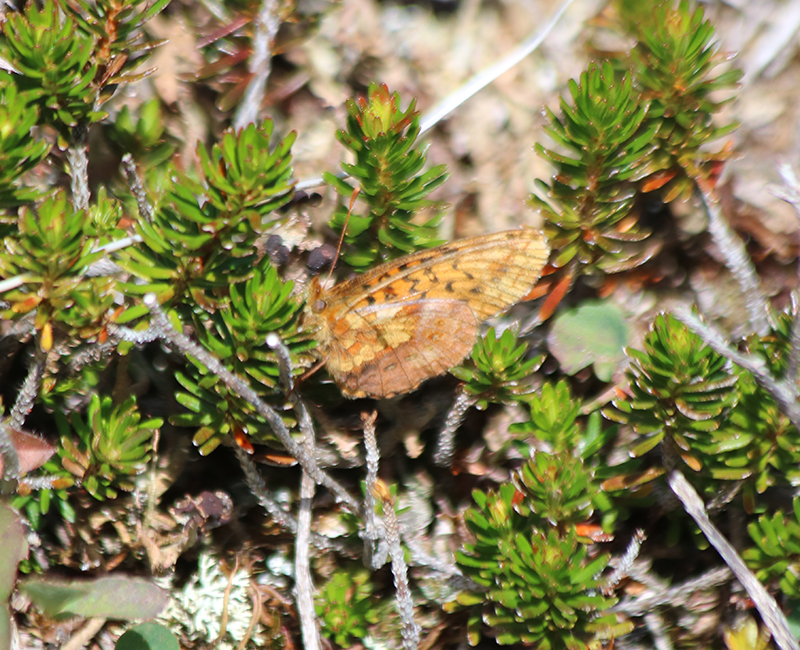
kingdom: Animalia
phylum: Arthropoda
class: Insecta
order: Lepidoptera
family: Nymphalidae
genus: Boloria
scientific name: Boloria epithore
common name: Pacific fritillary
